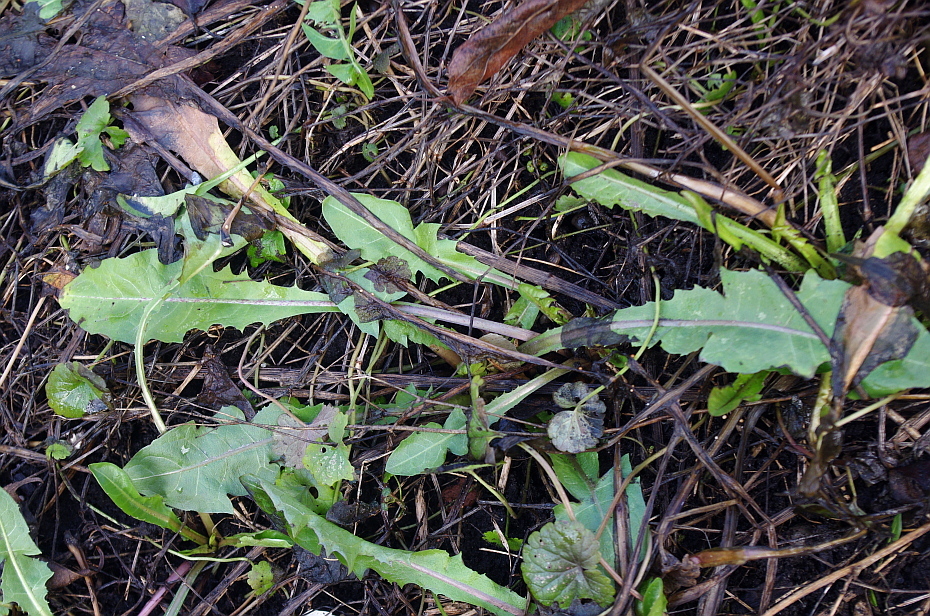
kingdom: Plantae
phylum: Tracheophyta
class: Magnoliopsida
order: Asterales
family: Asteraceae
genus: Taraxacum
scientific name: Taraxacum officinale
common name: Common dandelion
